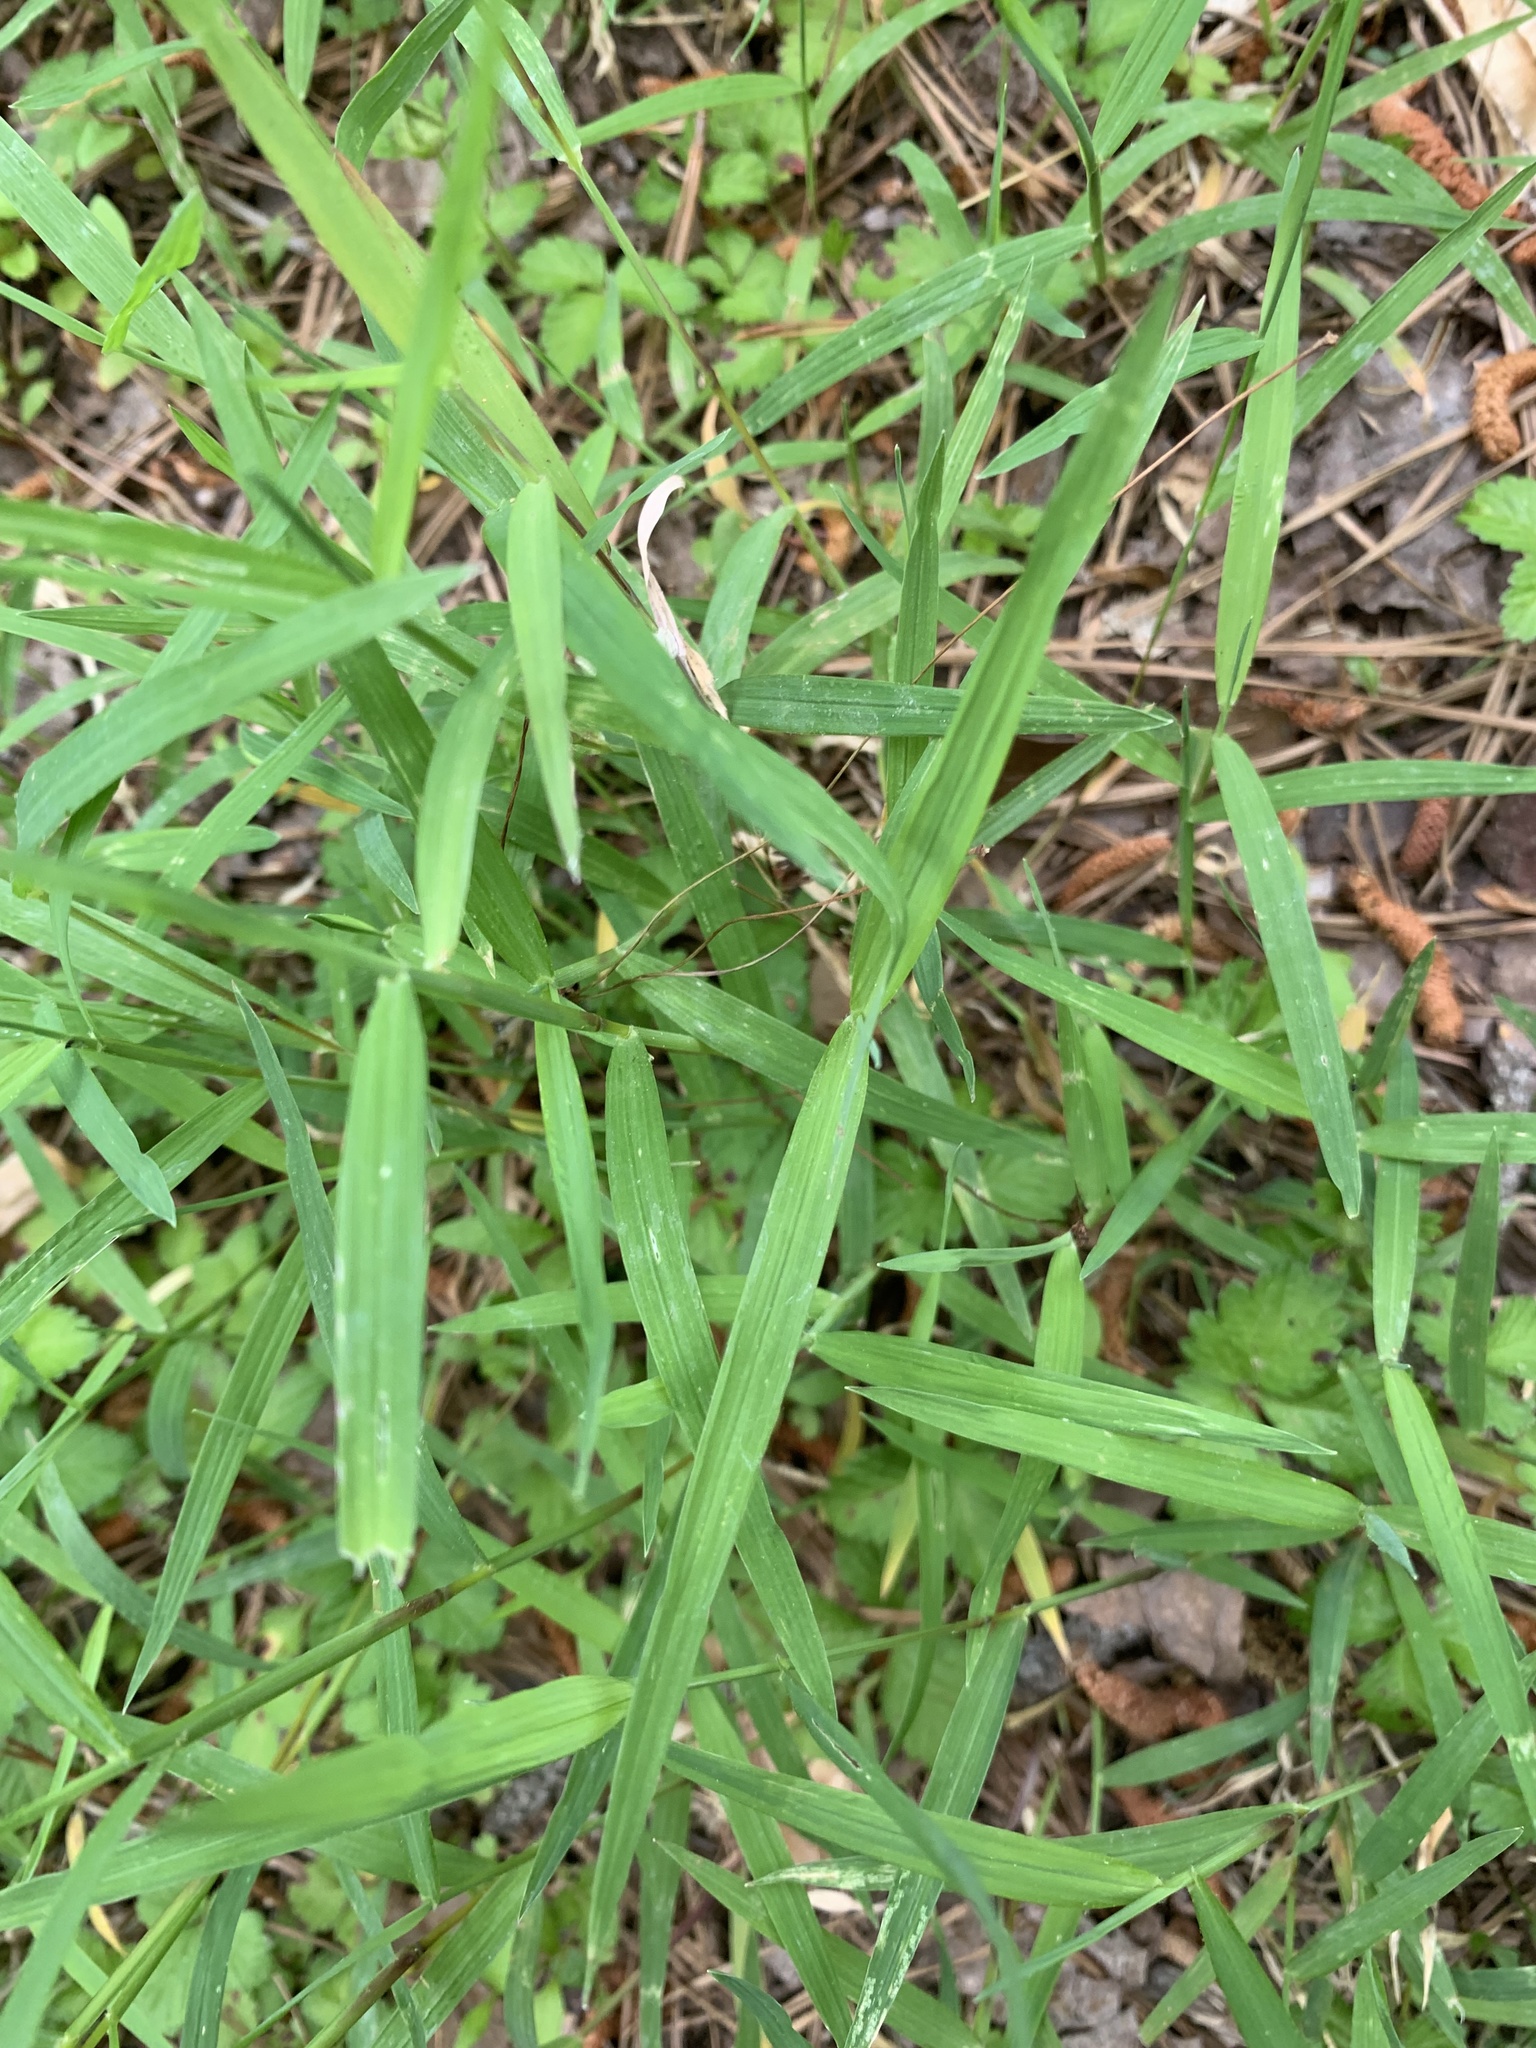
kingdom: Plantae
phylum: Tracheophyta
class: Liliopsida
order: Poales
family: Poaceae
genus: Muhlenbergia
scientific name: Muhlenbergia schreberi
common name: Nimblewill
